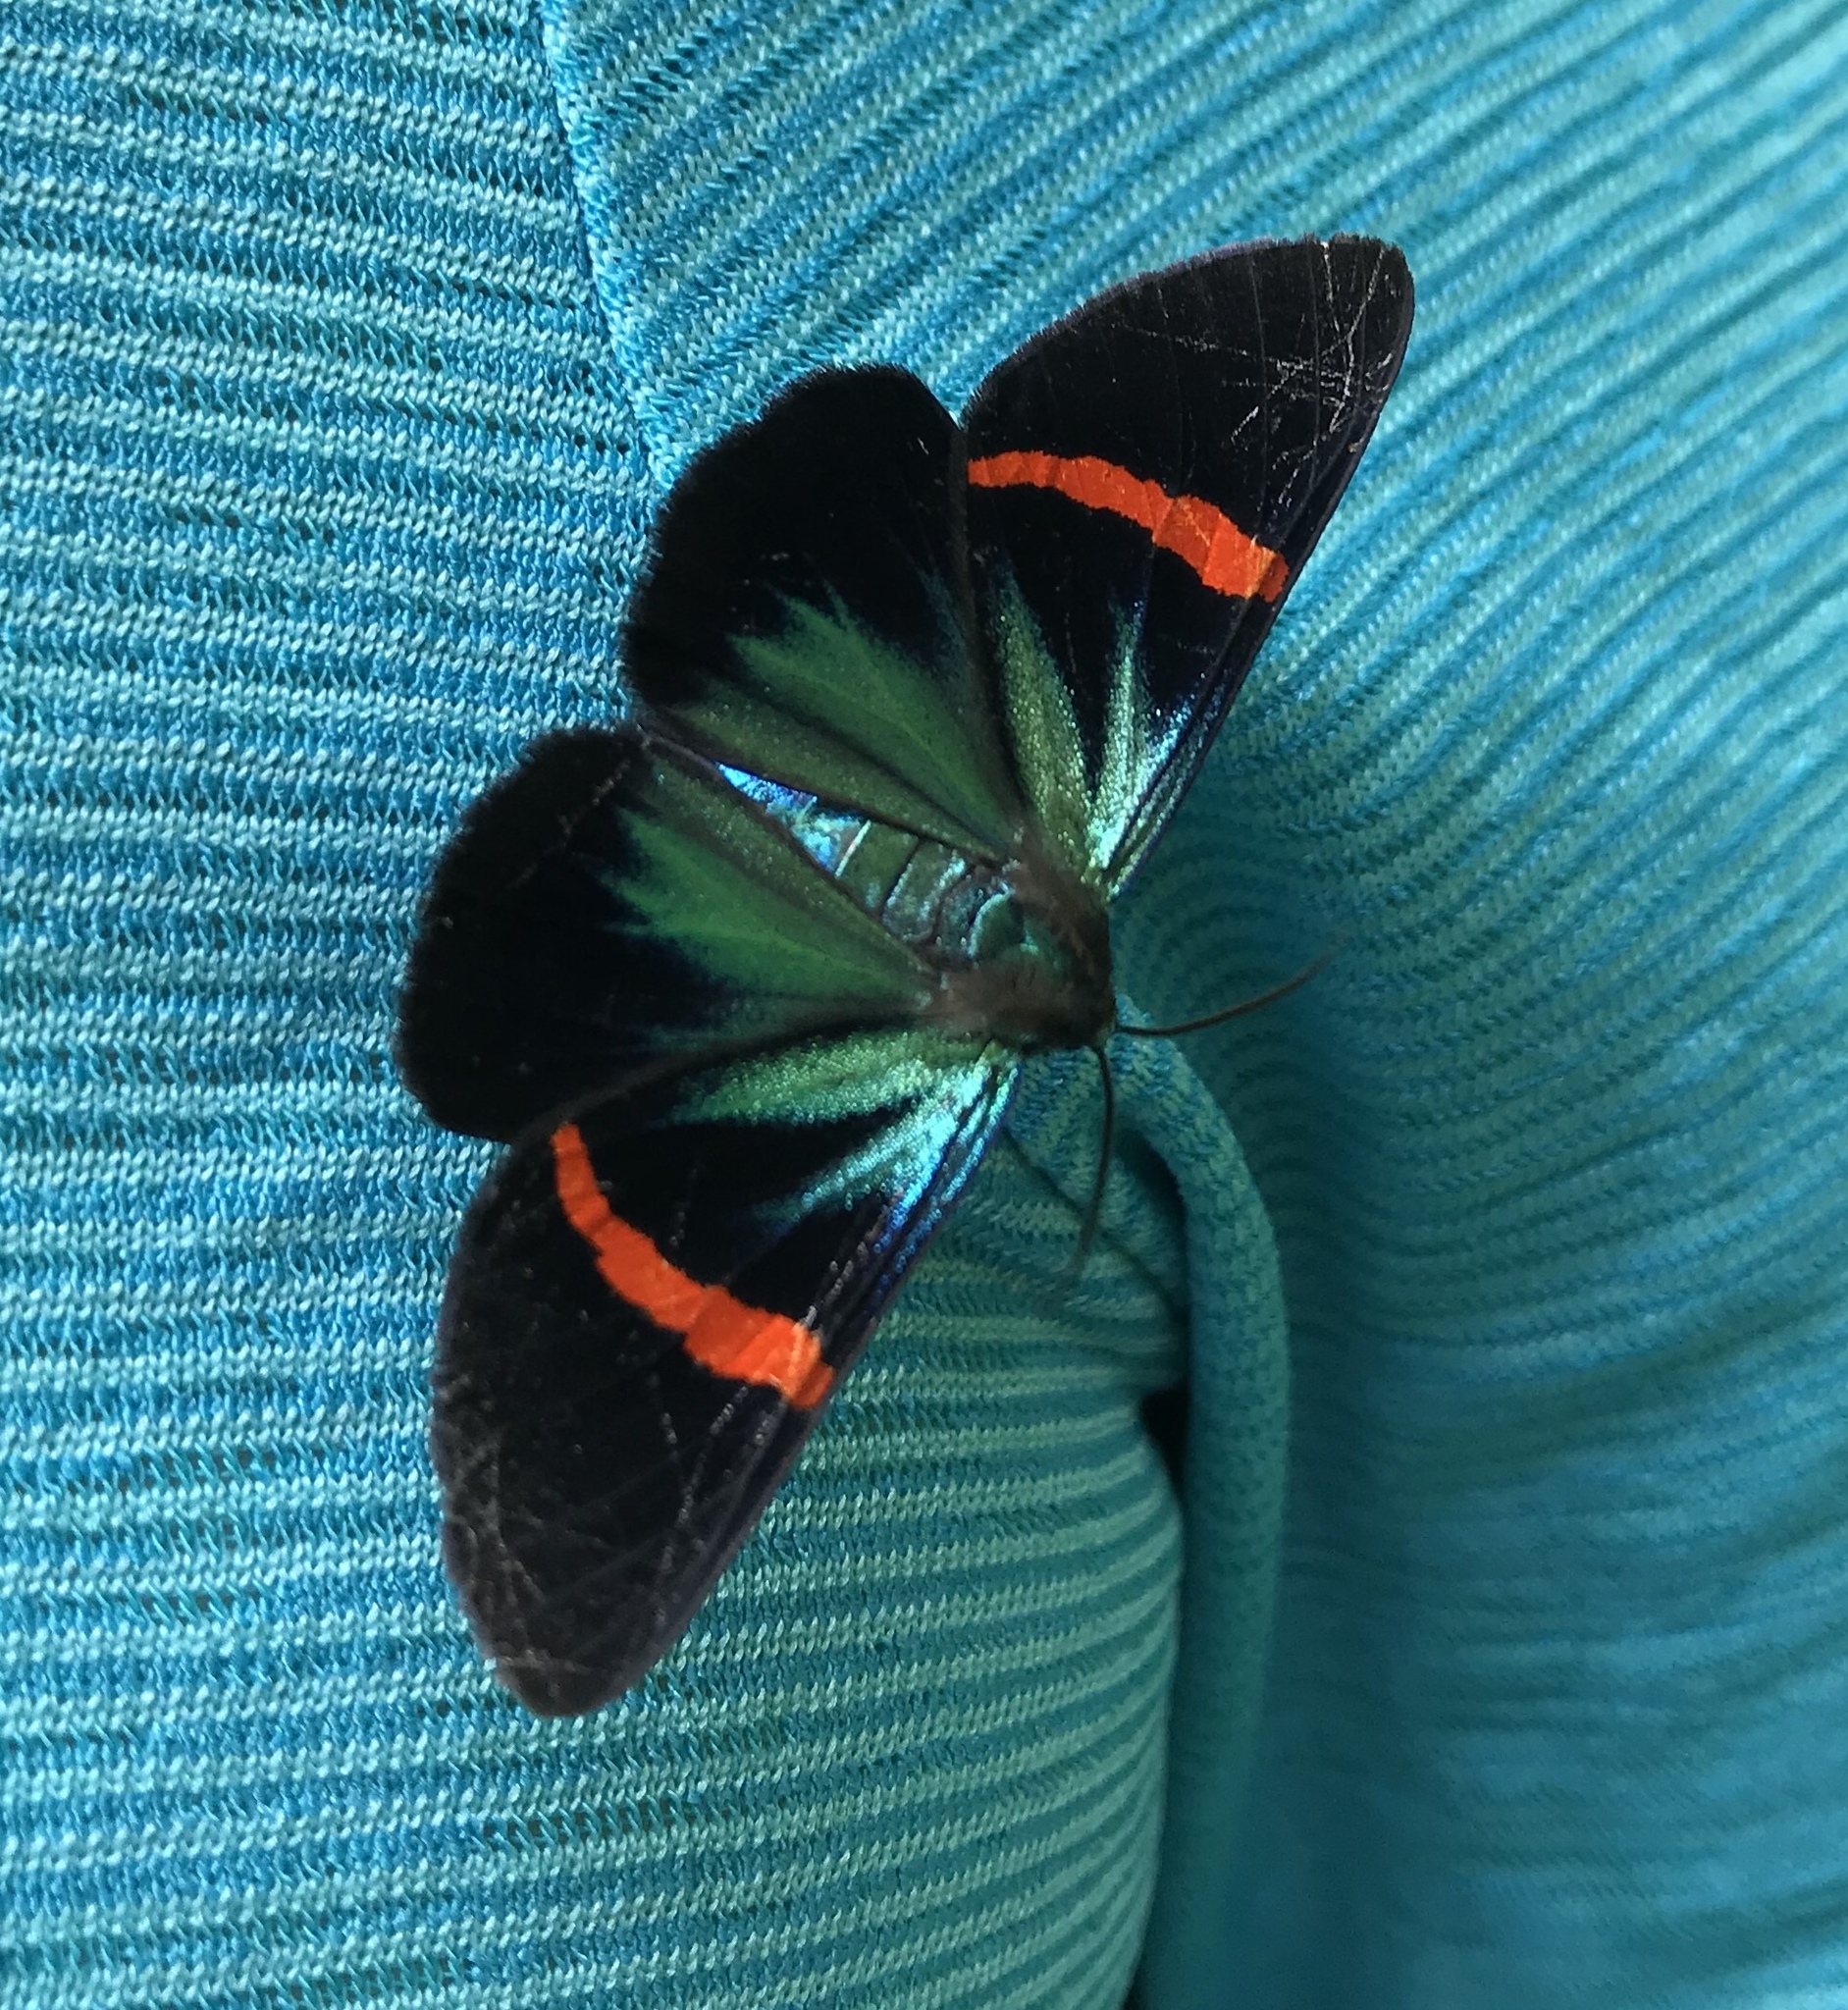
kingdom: Animalia
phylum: Arthropoda
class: Insecta
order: Lepidoptera
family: Geometridae
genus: Milionia
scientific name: Milionia fulgida
